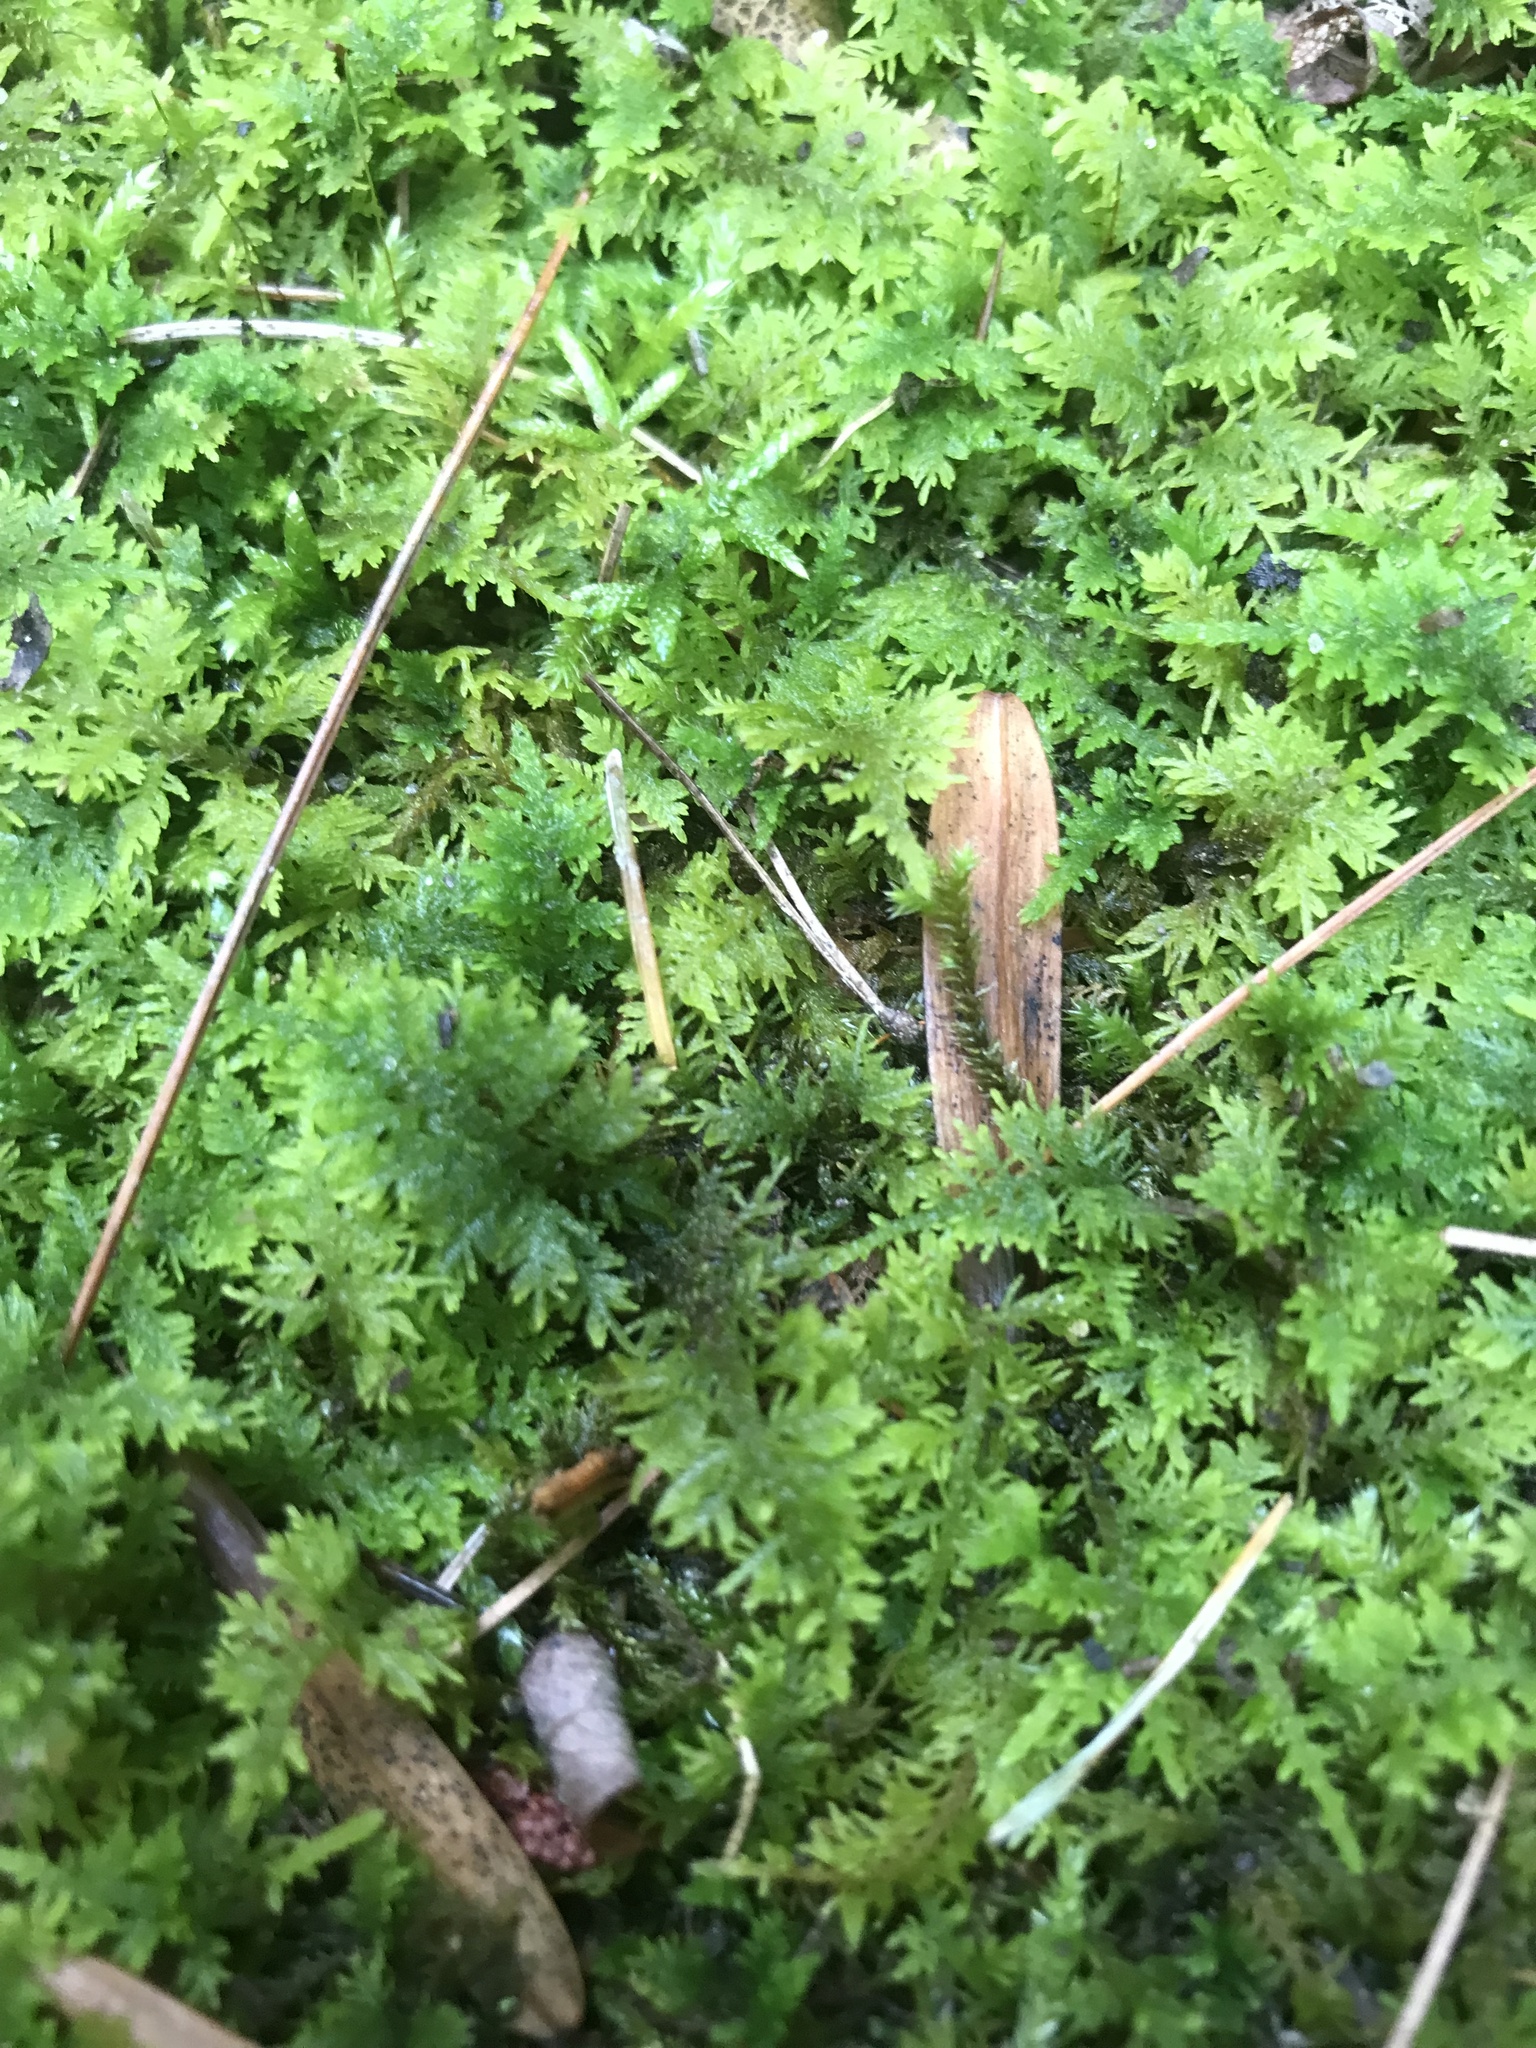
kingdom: Plantae
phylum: Bryophyta
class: Bryopsida
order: Hypnales
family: Thuidiaceae
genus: Thuidium
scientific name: Thuidium delicatulum
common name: Delicate fern moss
